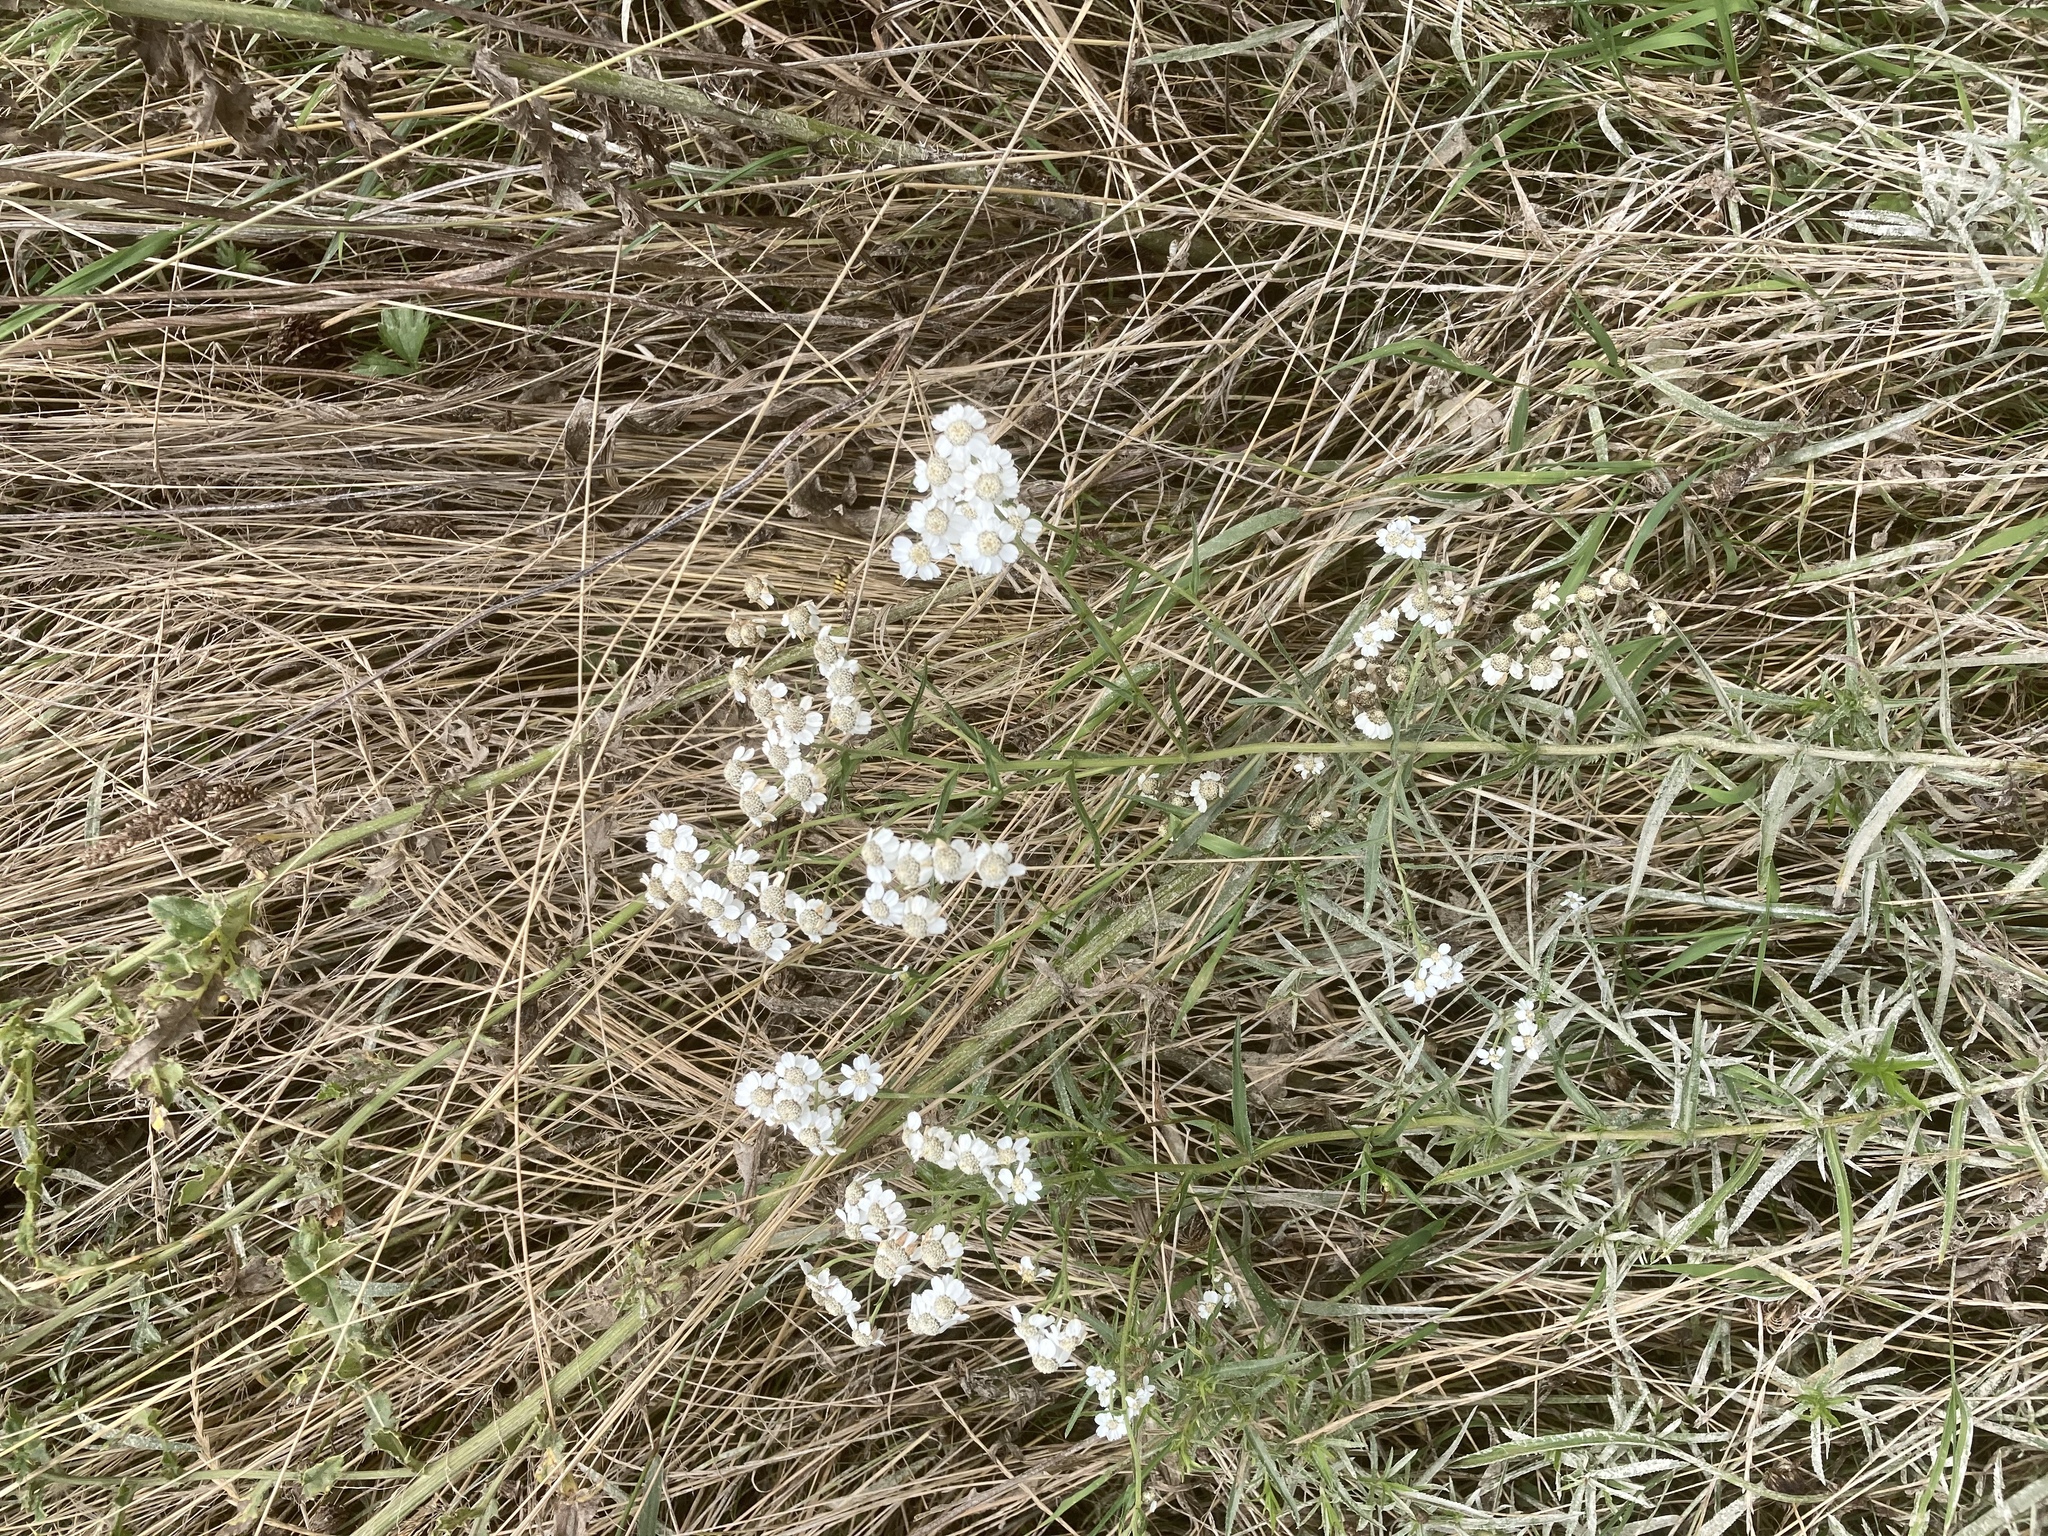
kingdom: Plantae
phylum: Tracheophyta
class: Magnoliopsida
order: Asterales
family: Asteraceae
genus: Achillea
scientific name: Achillea ptarmica
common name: Sneezeweed
